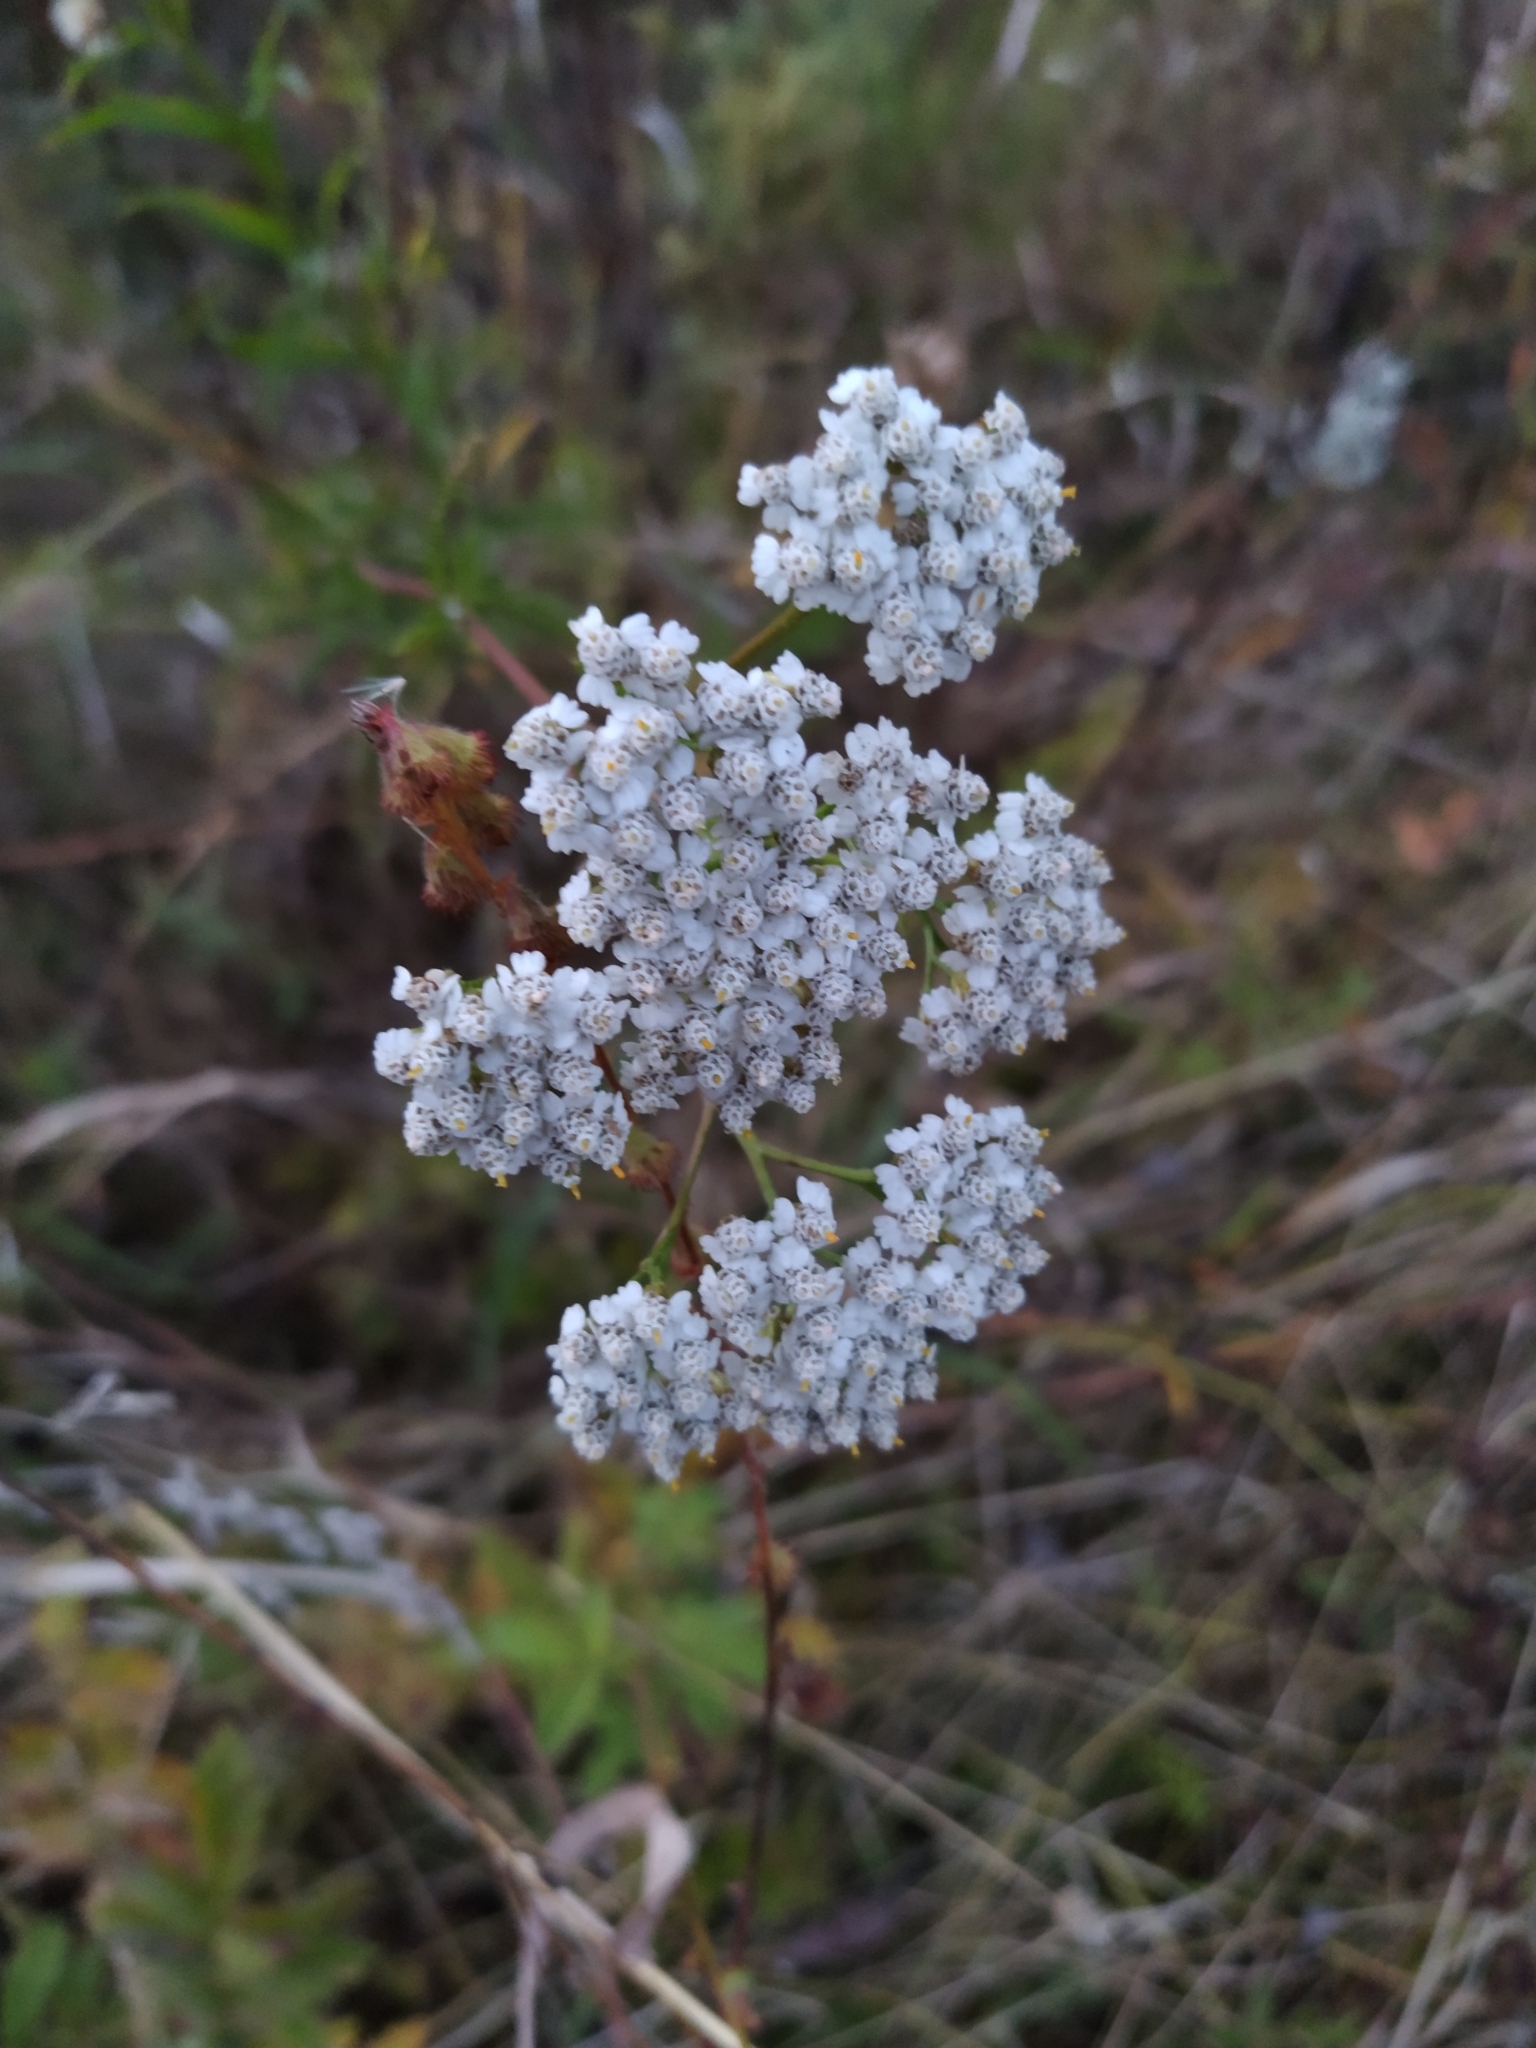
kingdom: Plantae
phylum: Tracheophyta
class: Magnoliopsida
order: Asterales
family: Asteraceae
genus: Achillea
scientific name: Achillea millefolium
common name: Yarrow
